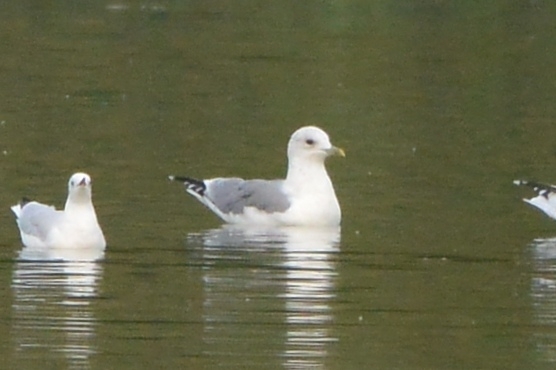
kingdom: Animalia
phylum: Chordata
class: Aves
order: Charadriiformes
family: Laridae
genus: Larus
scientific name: Larus canus
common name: Mew gull
